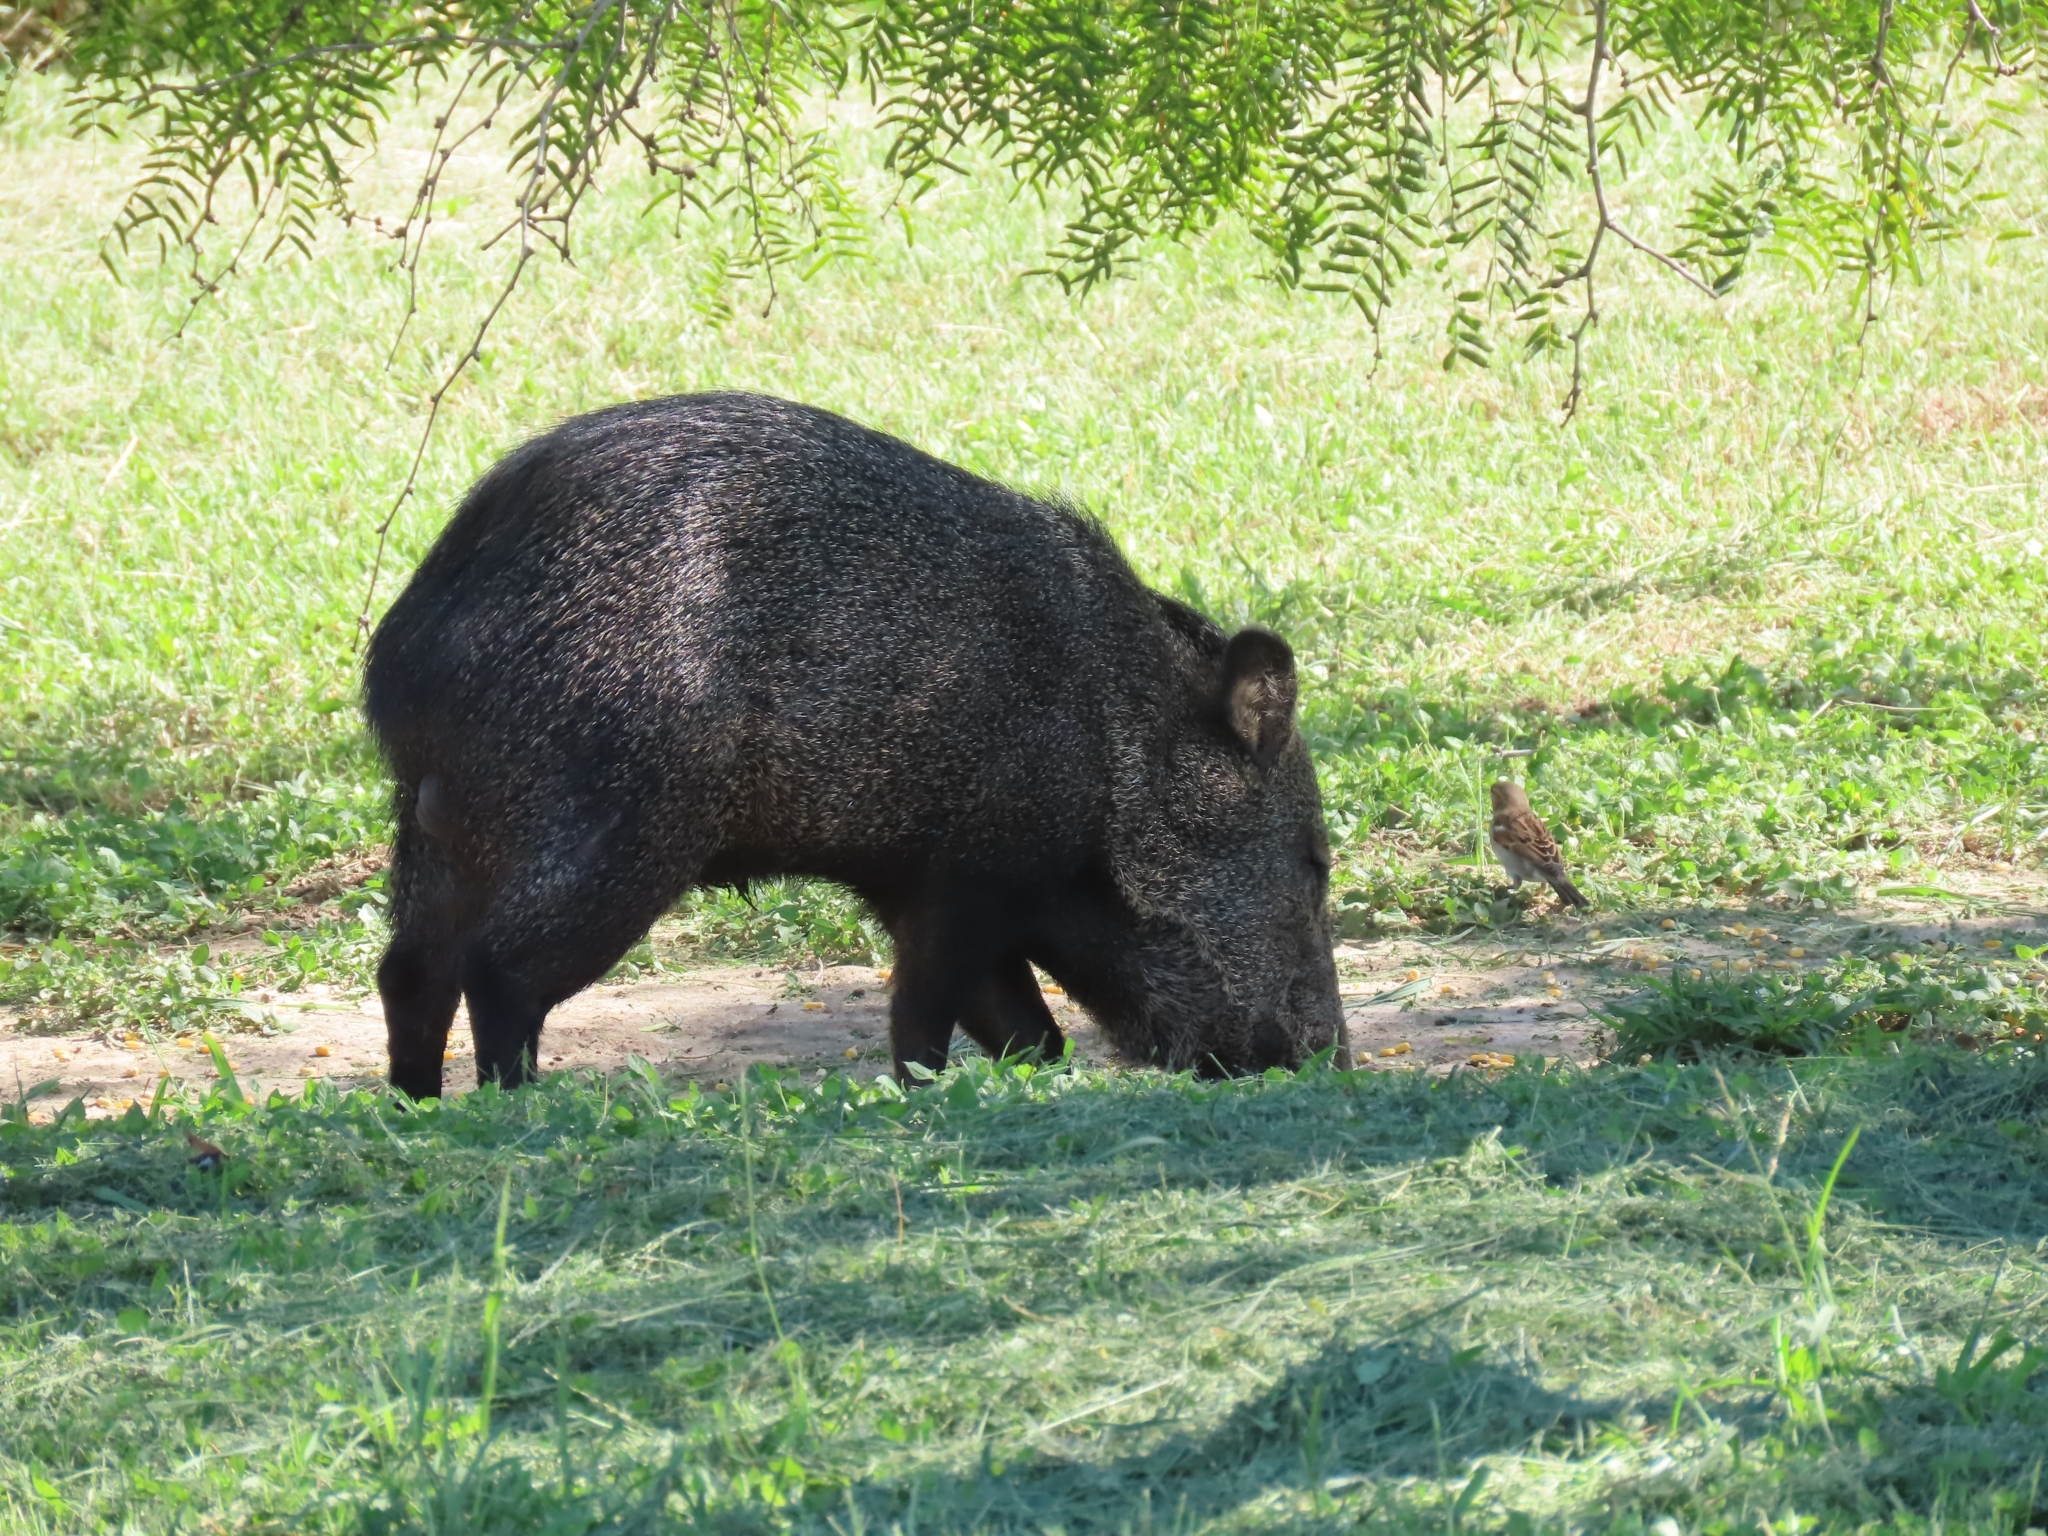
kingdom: Animalia
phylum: Chordata
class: Mammalia
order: Artiodactyla
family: Tayassuidae
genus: Pecari
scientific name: Pecari tajacu
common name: Collared peccary
